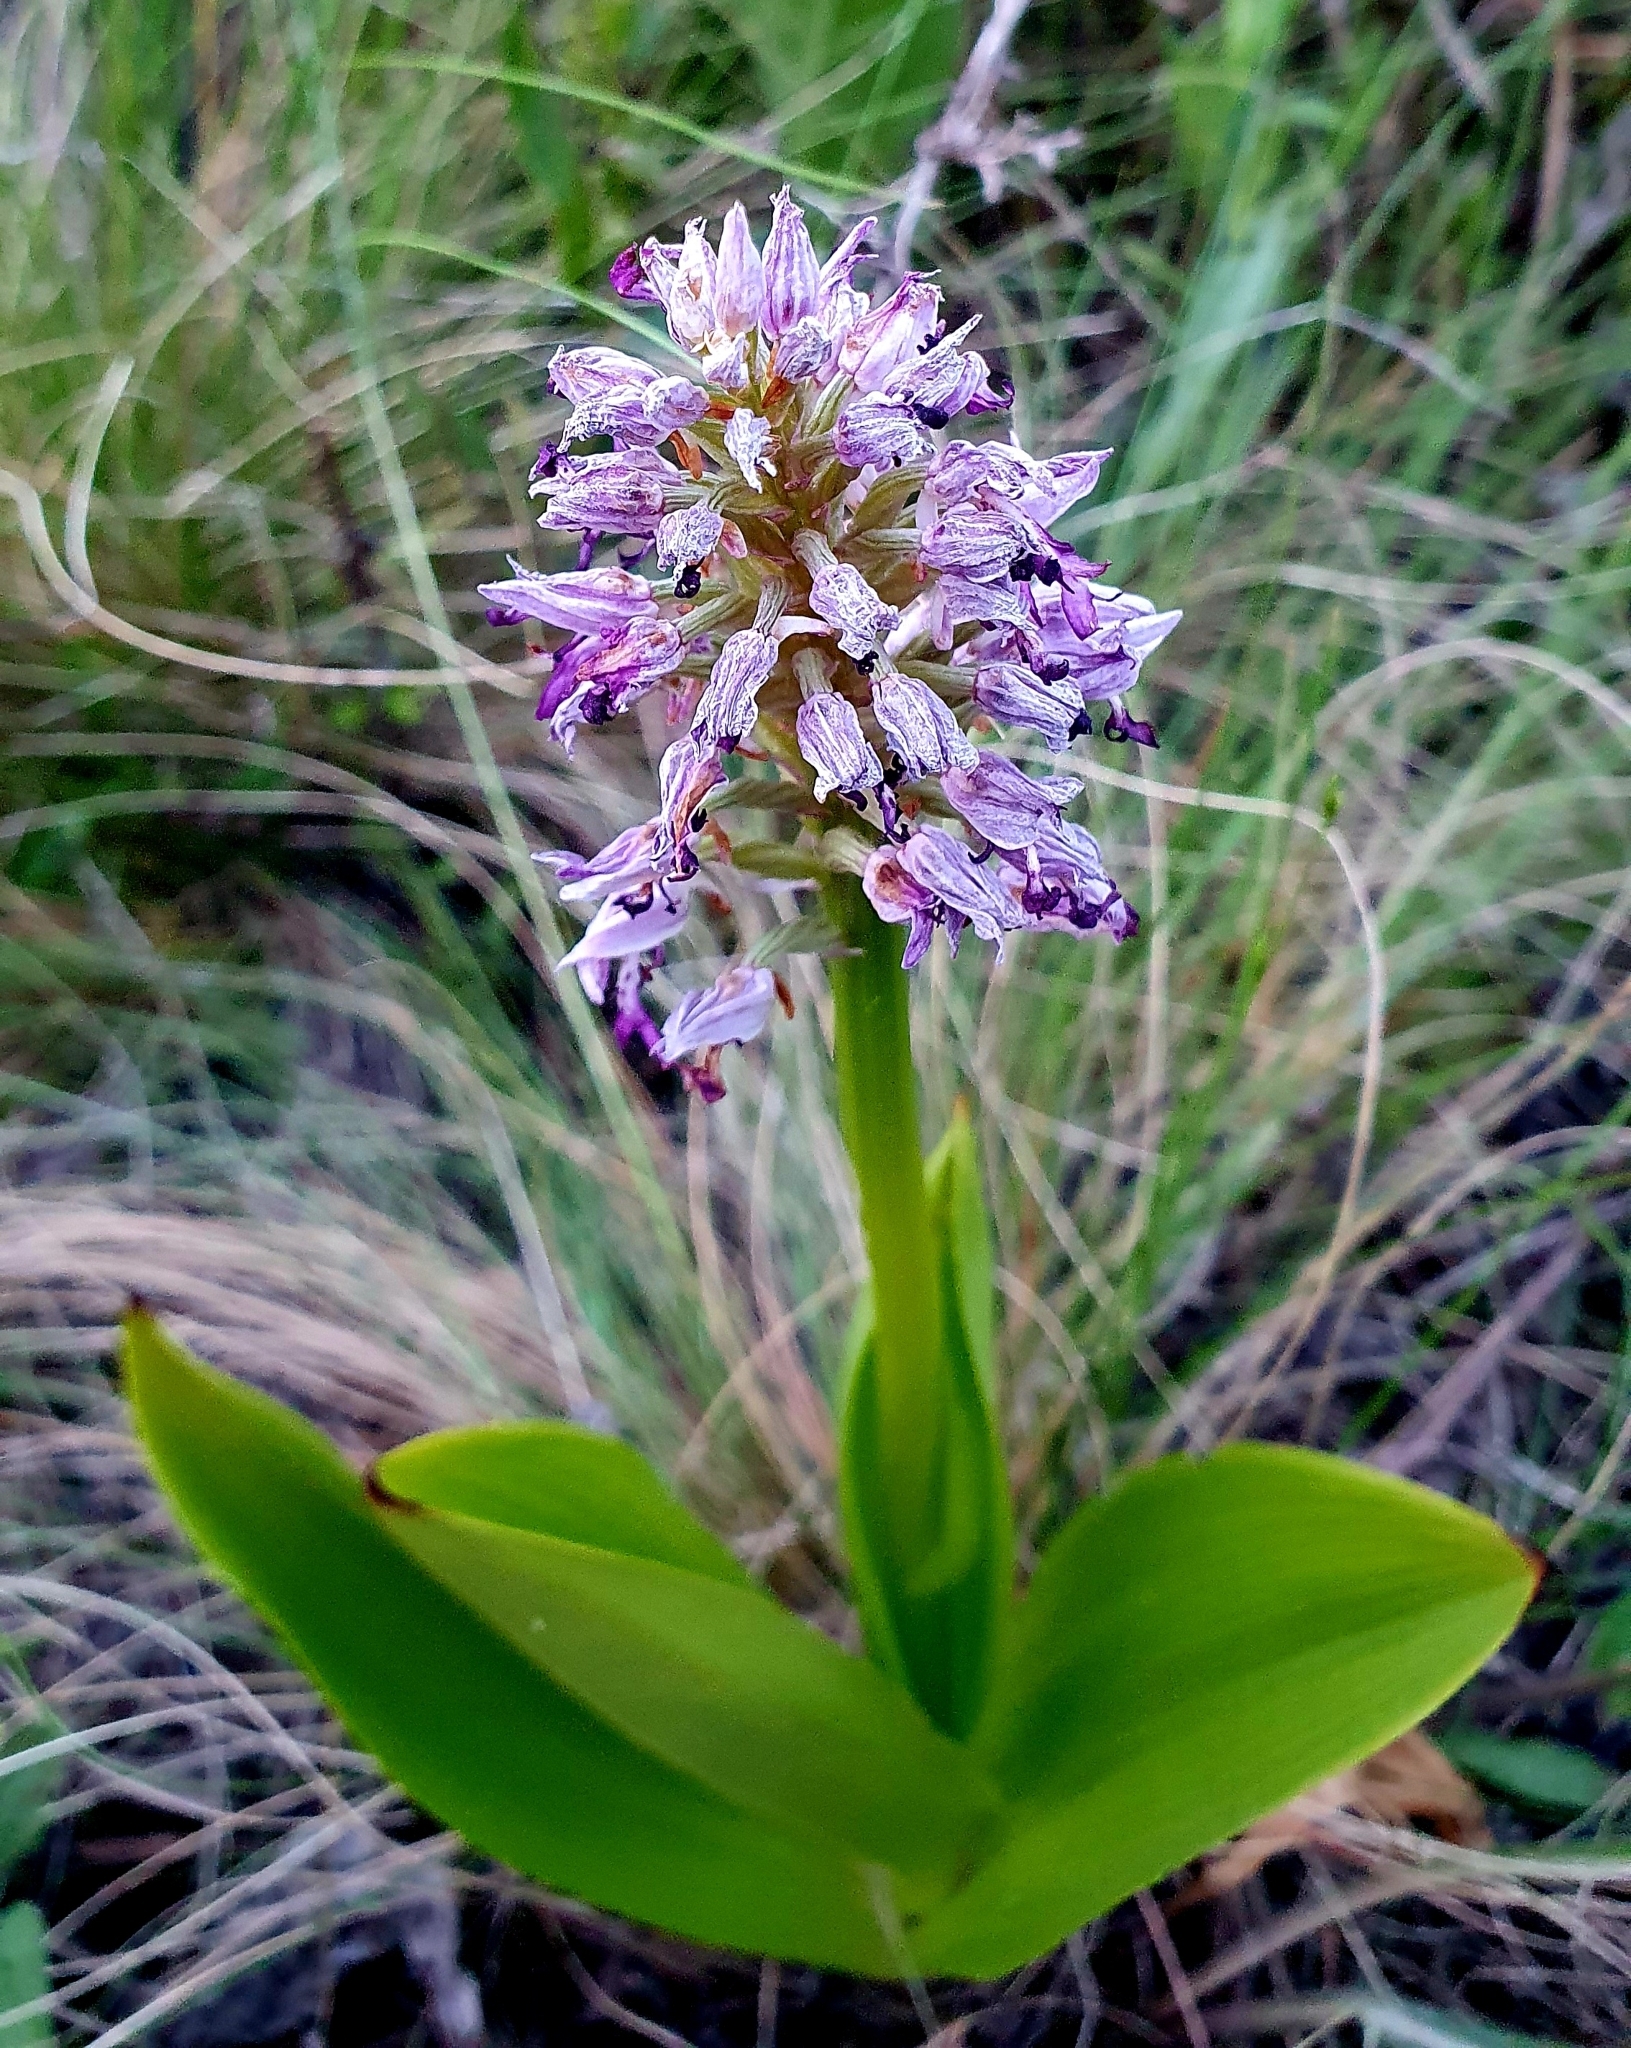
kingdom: Plantae
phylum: Tracheophyta
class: Liliopsida
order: Asparagales
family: Orchidaceae
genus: Orchis
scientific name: Orchis militaris
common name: Military orchid
